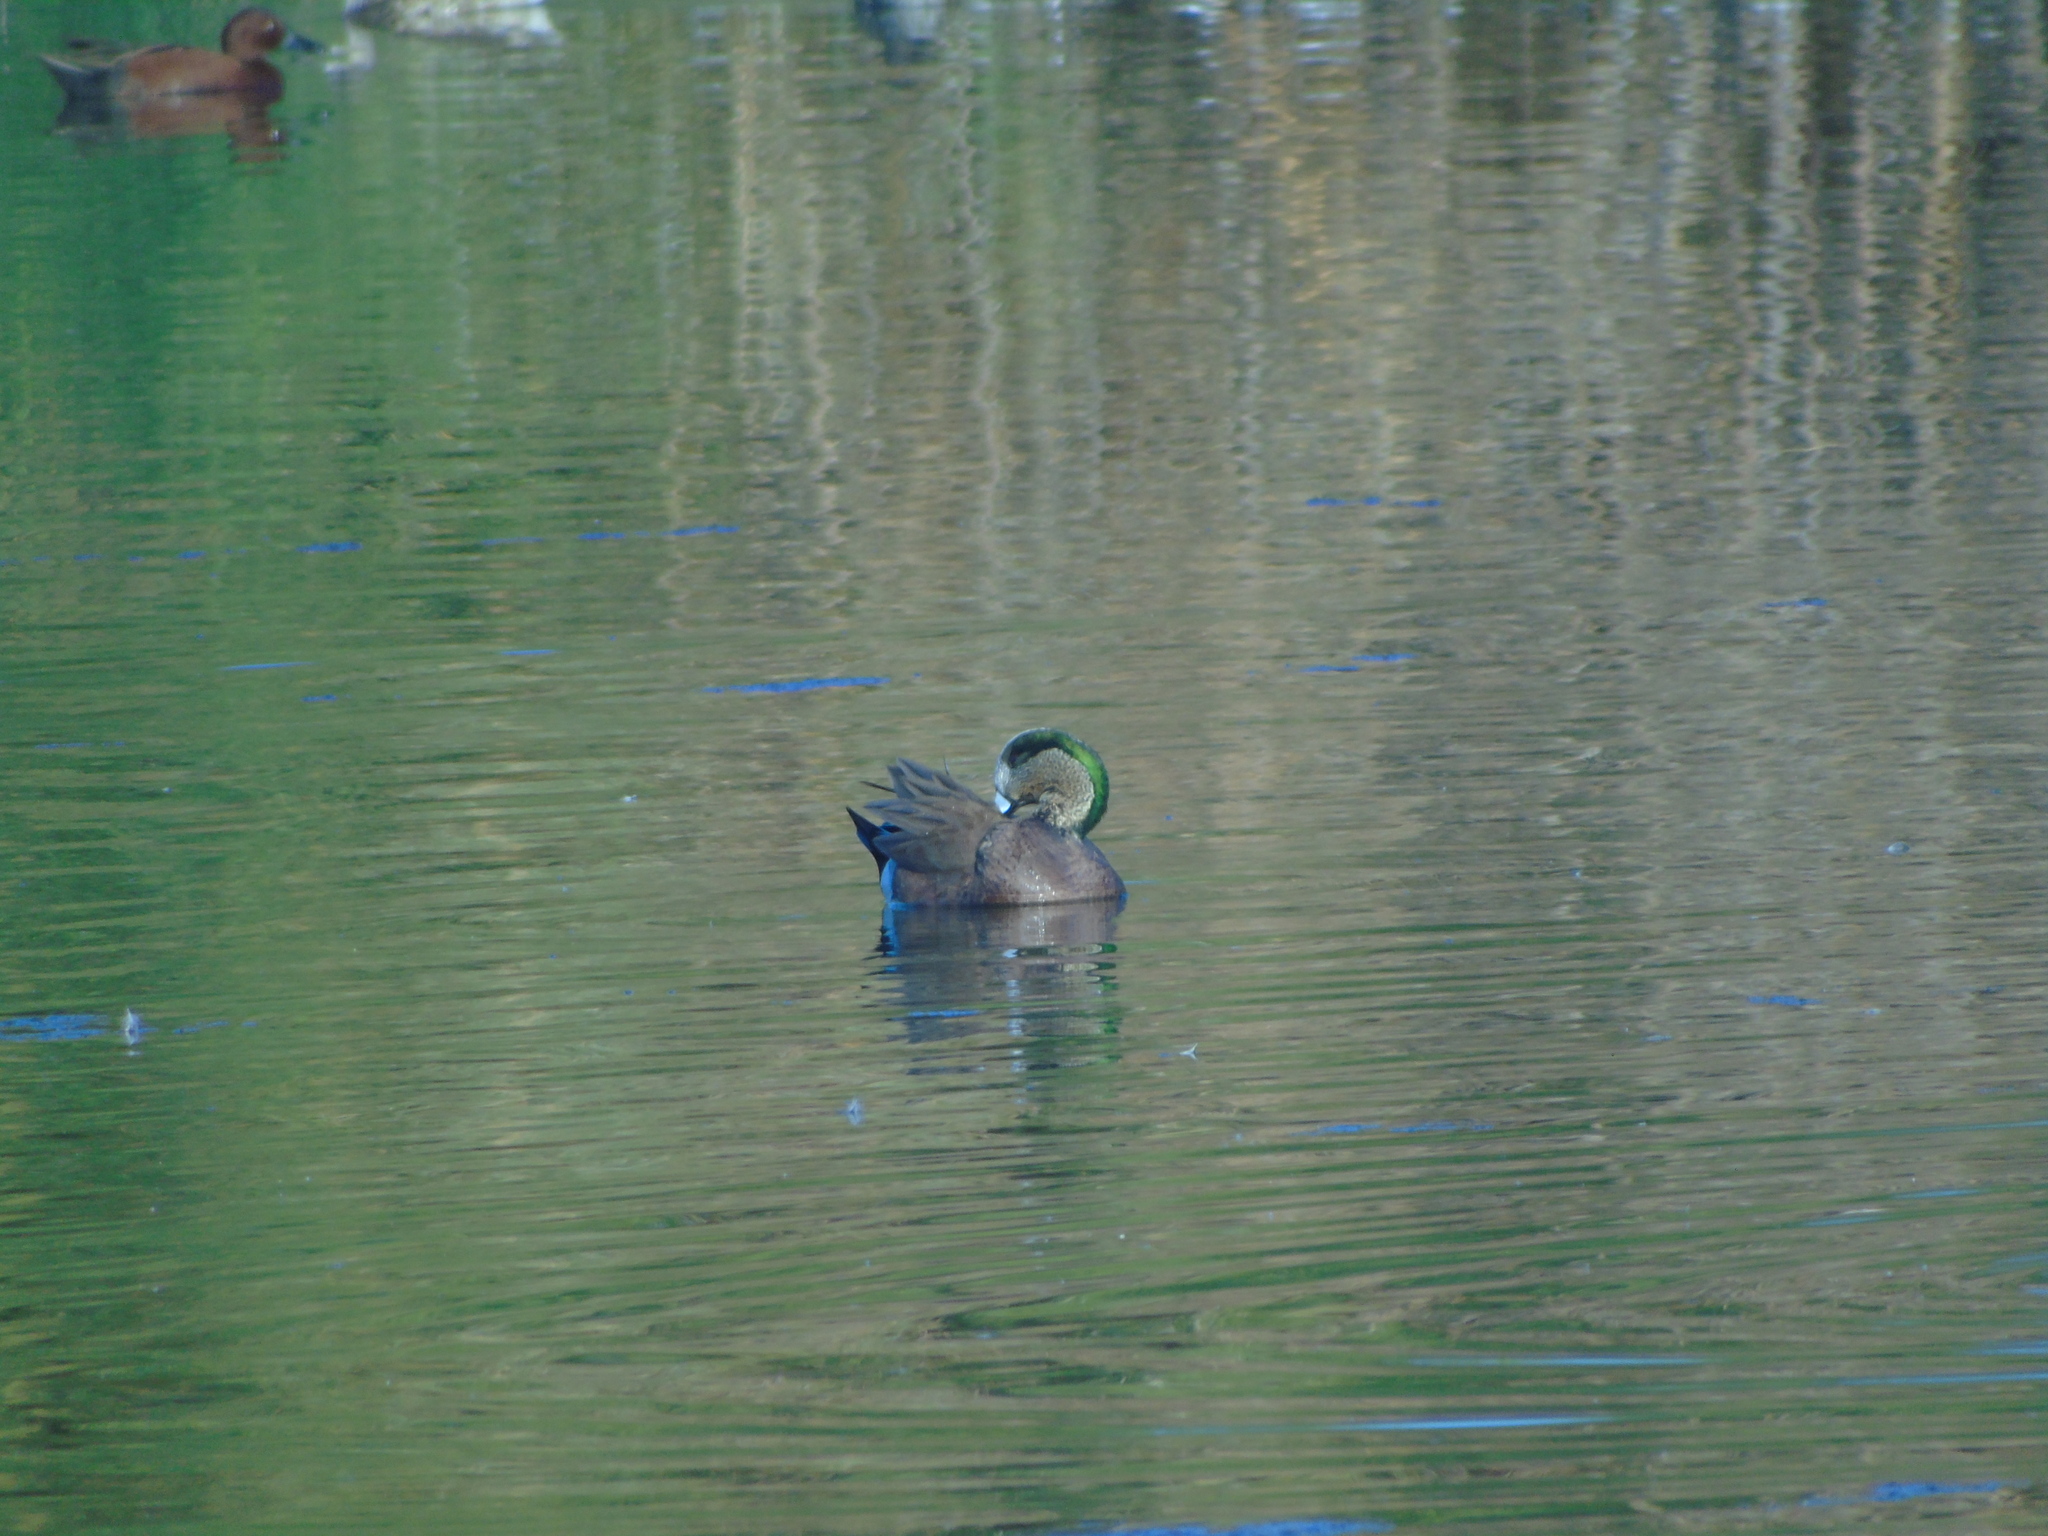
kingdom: Animalia
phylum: Chordata
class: Aves
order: Anseriformes
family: Anatidae
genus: Mareca
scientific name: Mareca americana
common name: American wigeon
